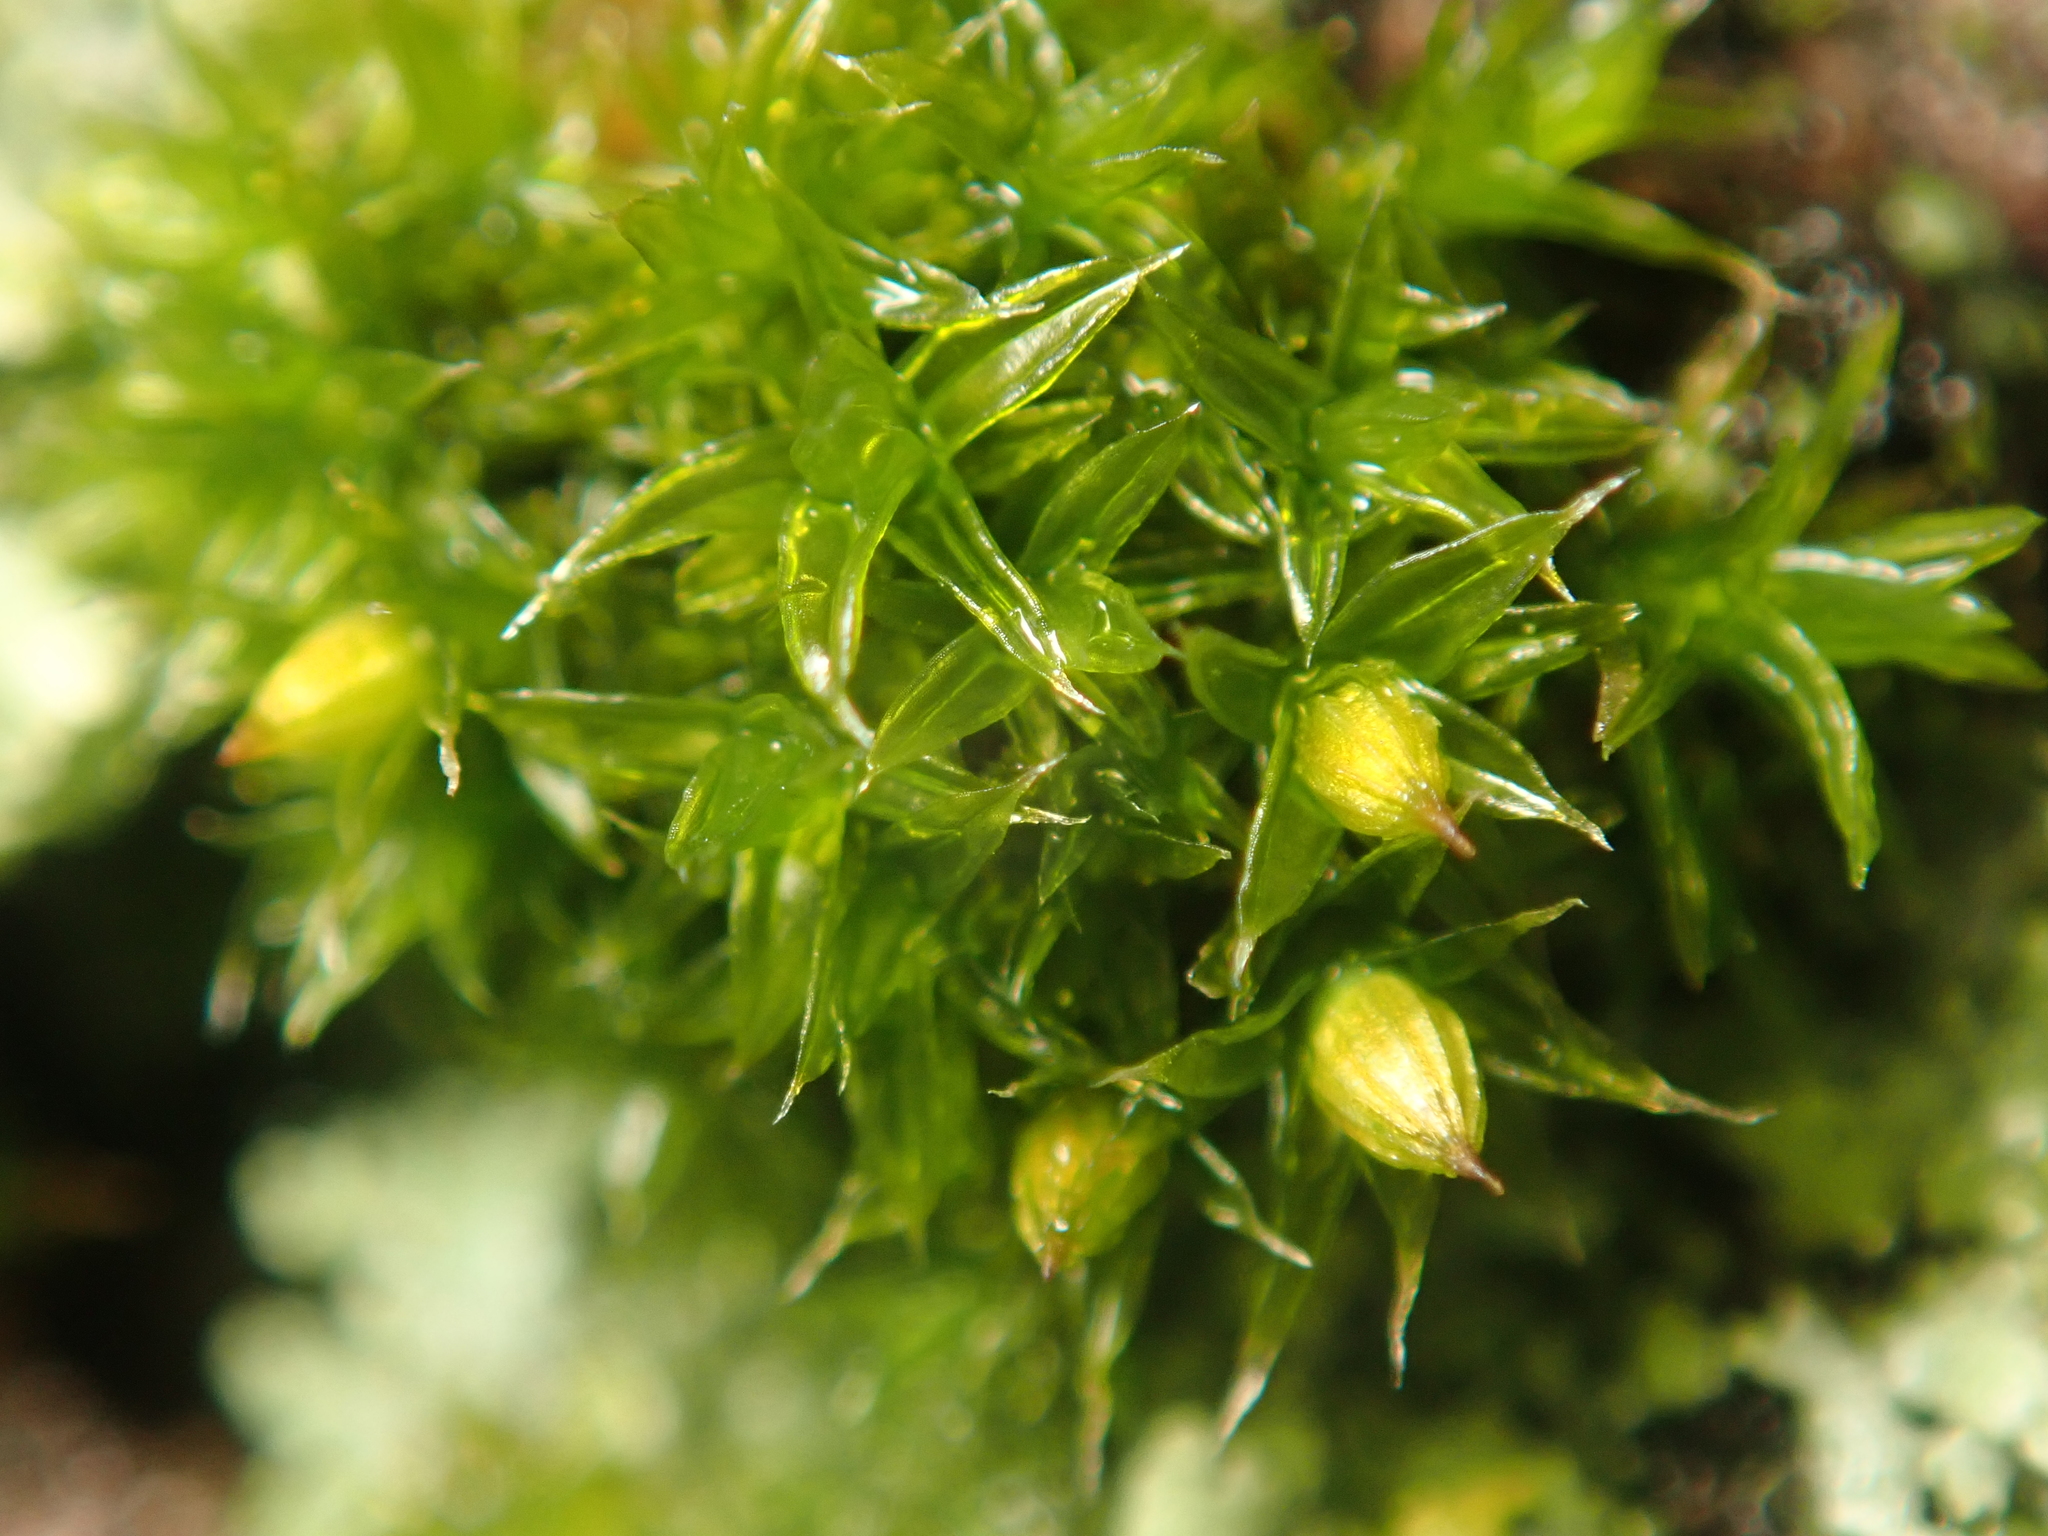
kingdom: Plantae
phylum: Bryophyta
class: Bryopsida
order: Orthotrichales
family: Orthotrichaceae
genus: Orthotrichum
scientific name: Orthotrichum diaphanum
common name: White-tipped bristle-moss
